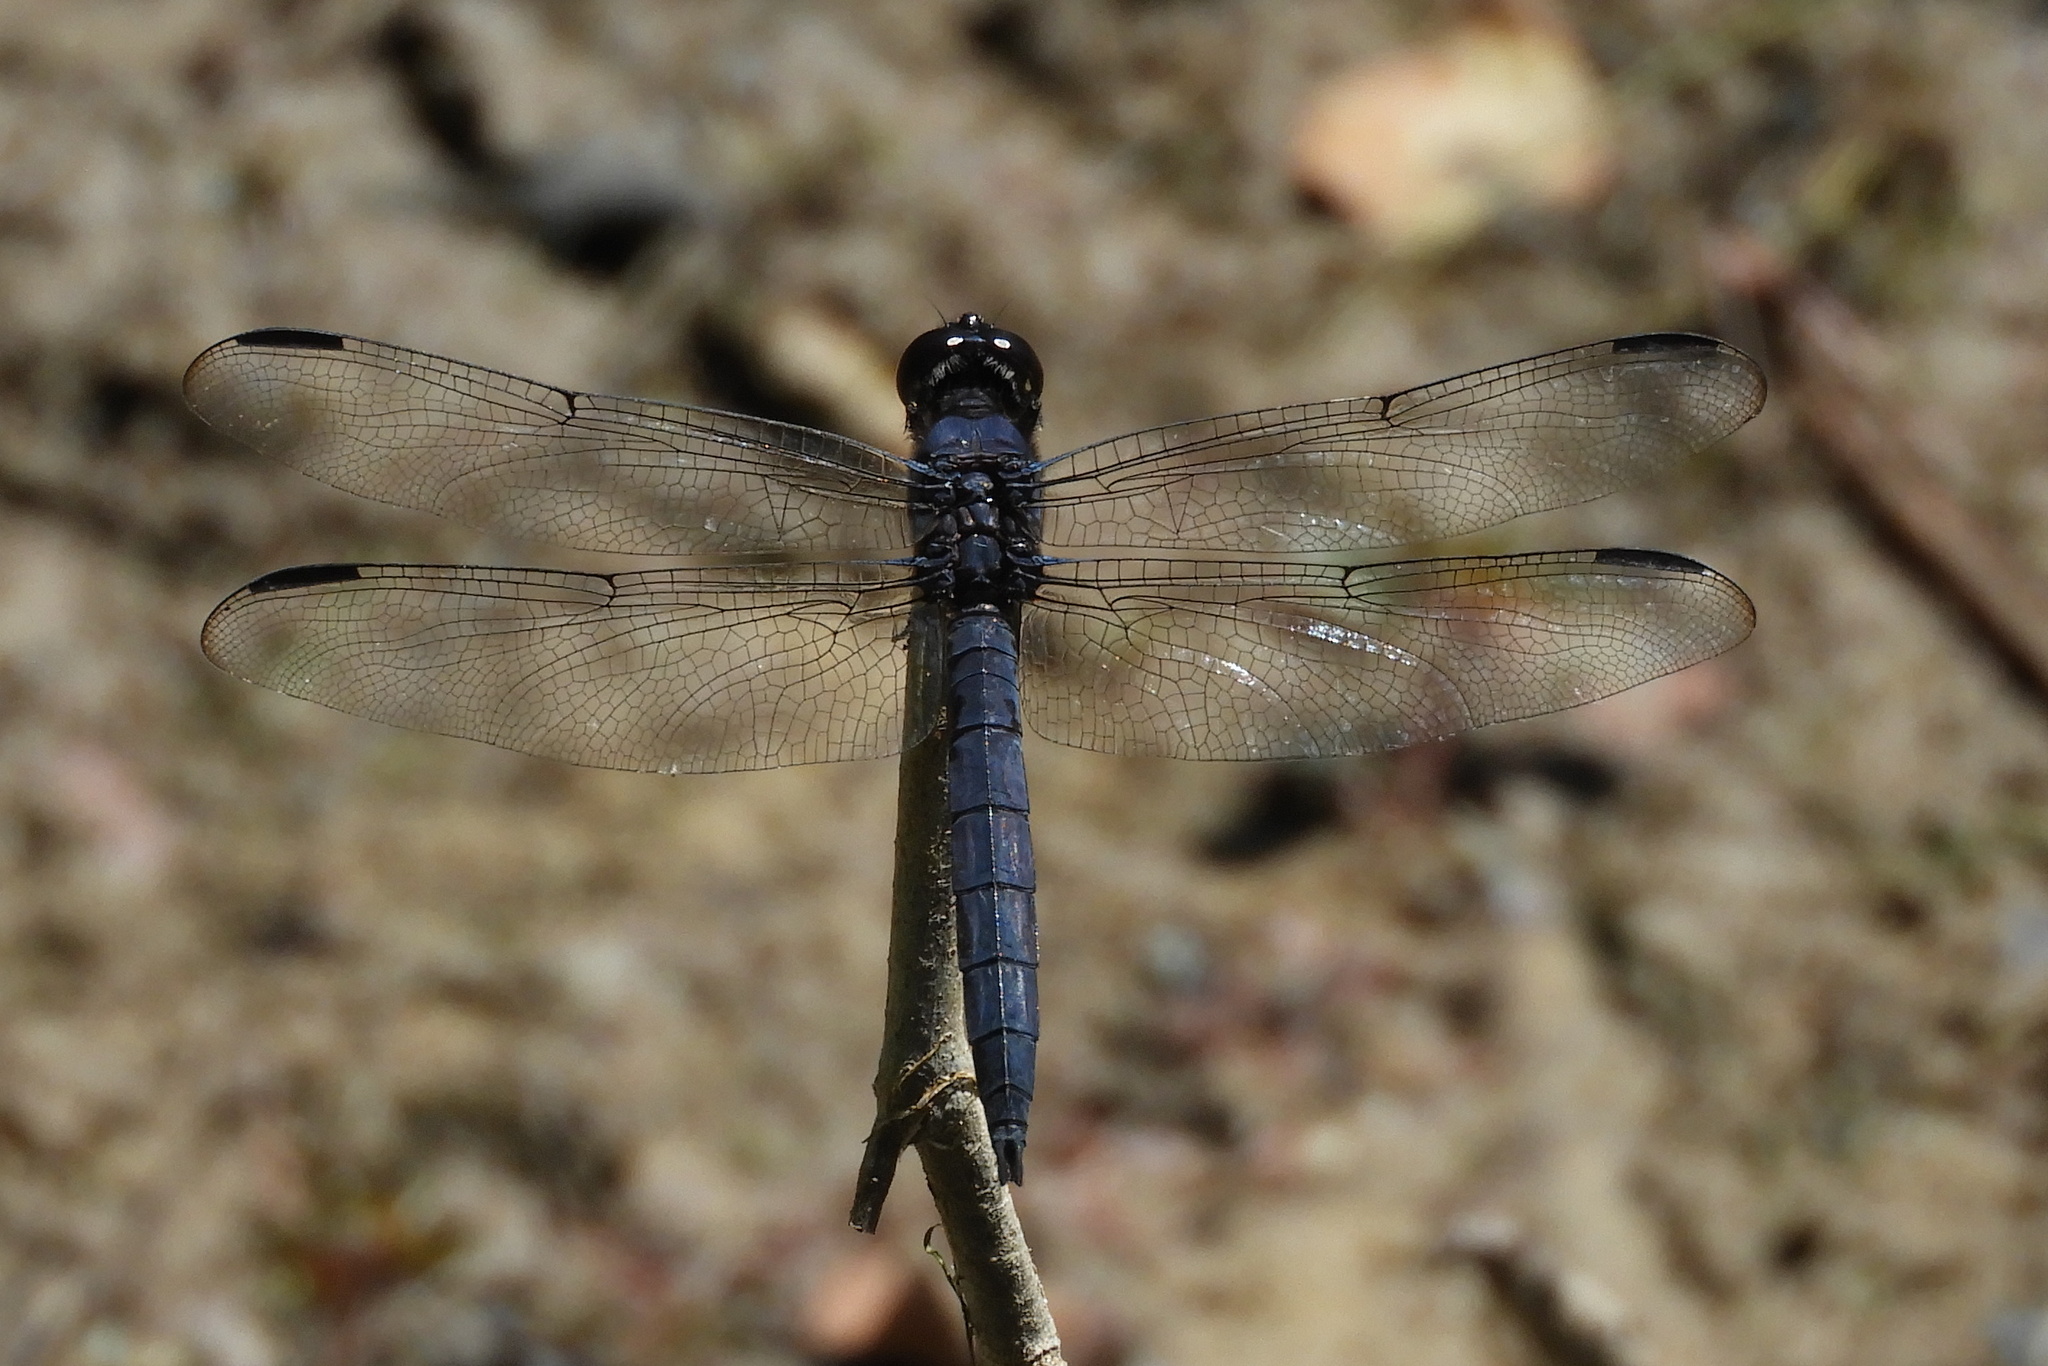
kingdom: Animalia
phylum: Arthropoda
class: Insecta
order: Odonata
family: Libellulidae
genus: Libellula
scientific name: Libellula incesta
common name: Slaty skimmer
